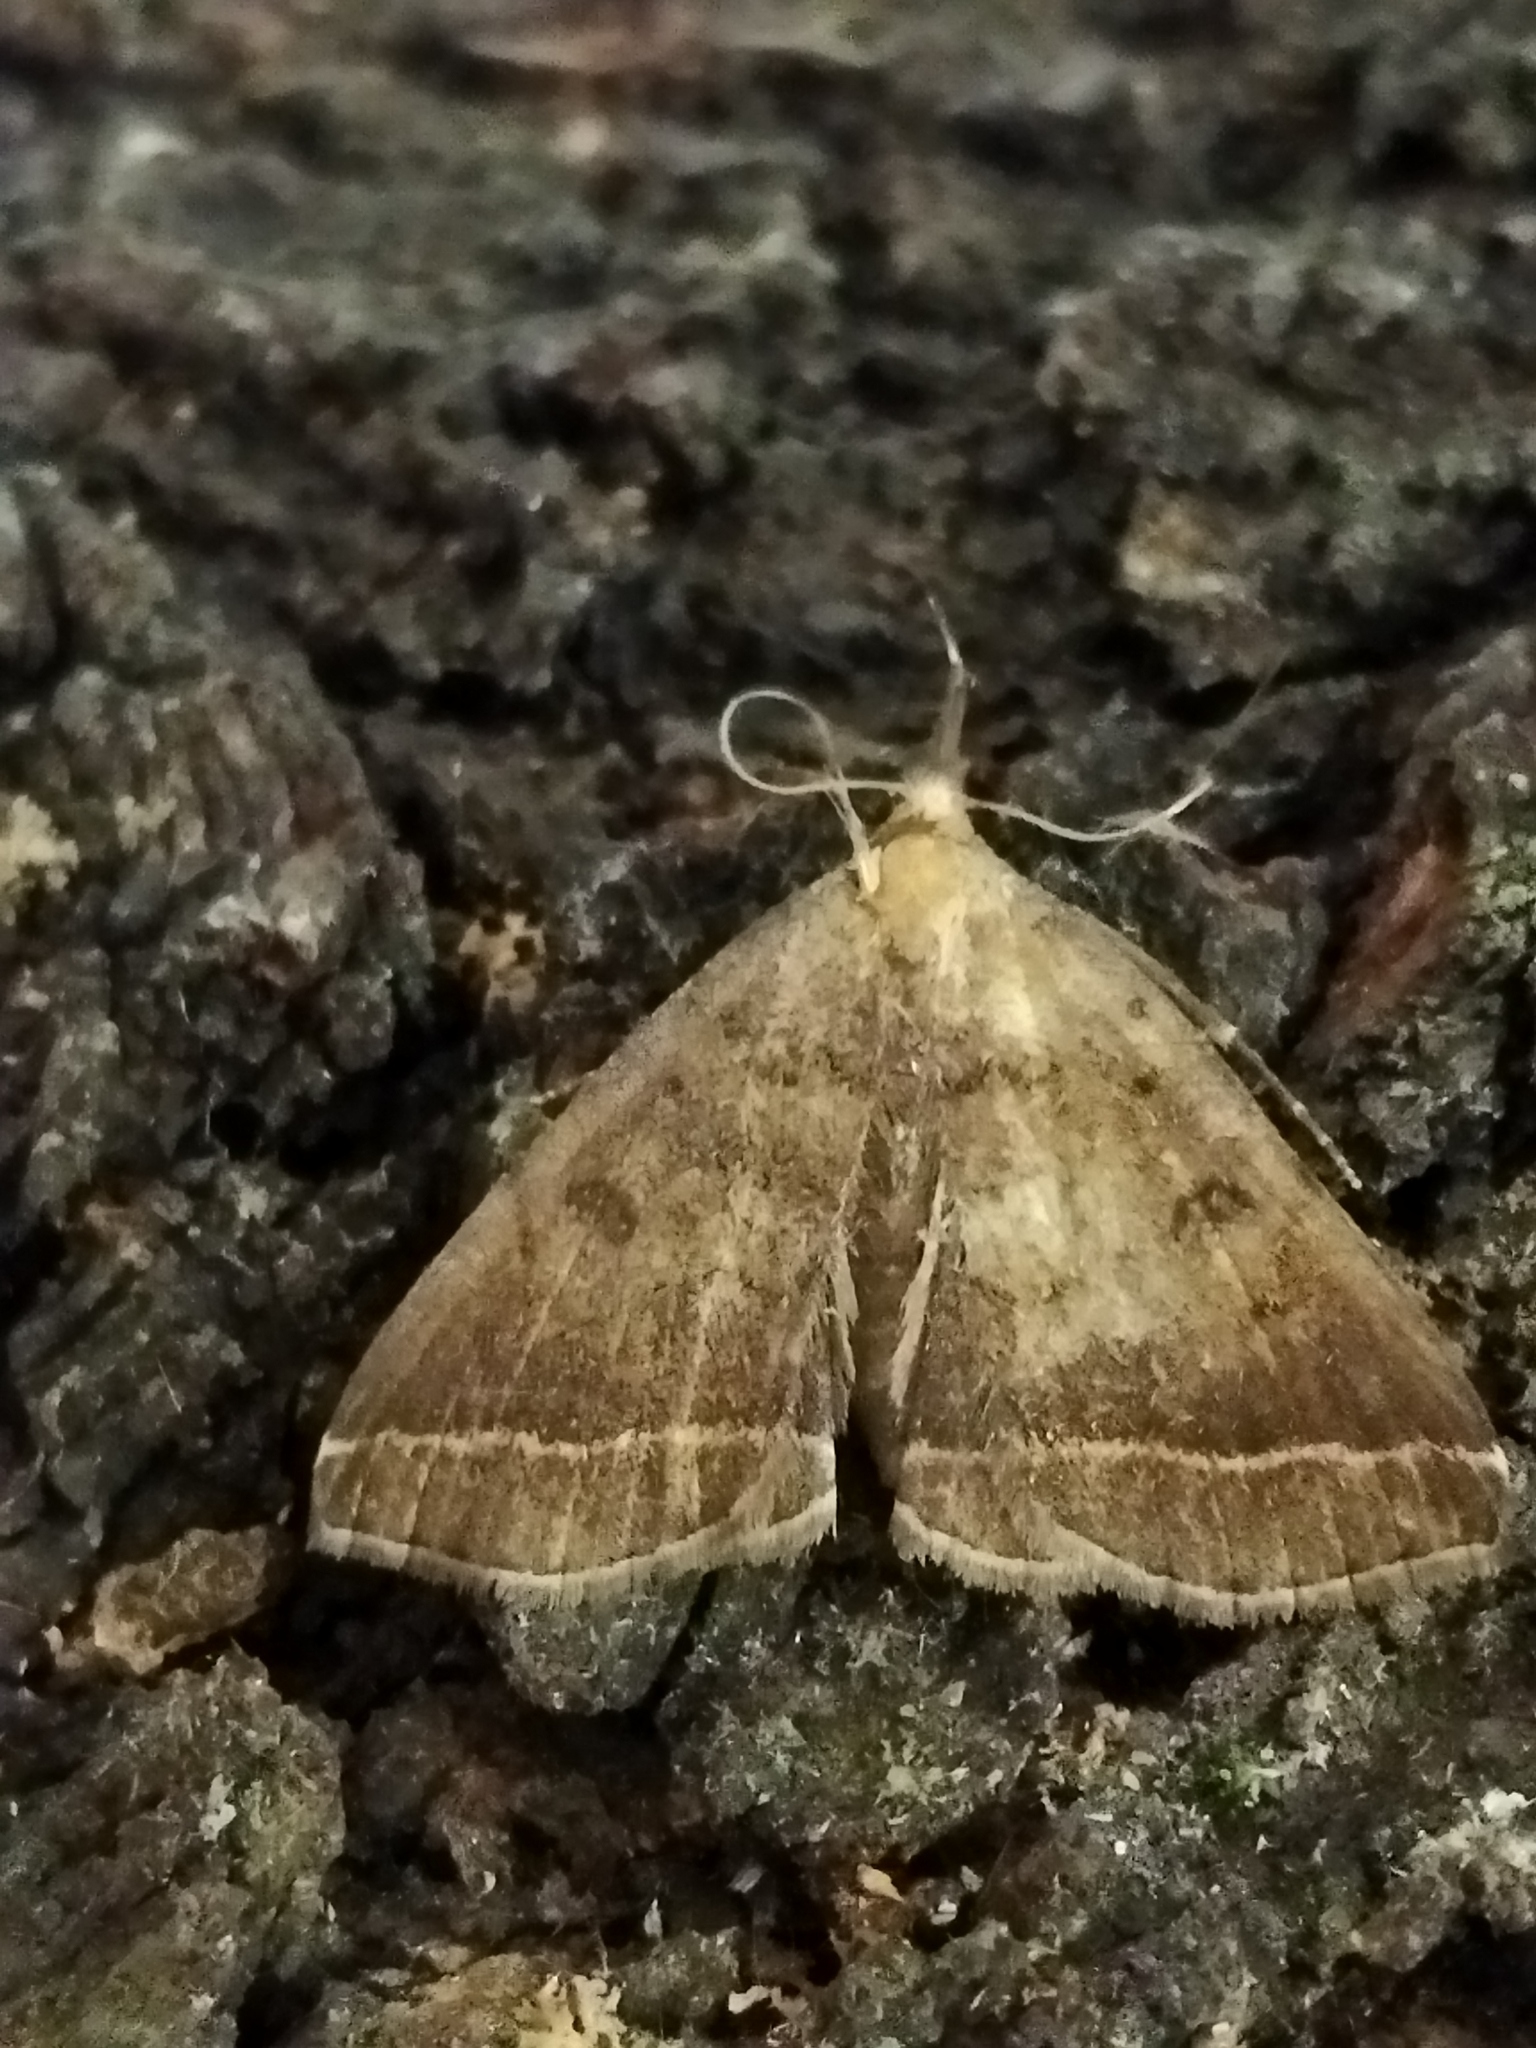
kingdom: Animalia
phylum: Arthropoda
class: Insecta
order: Lepidoptera
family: Erebidae
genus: Pechipogo
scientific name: Pechipogo plumigeralis
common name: Plumed fan-foot
